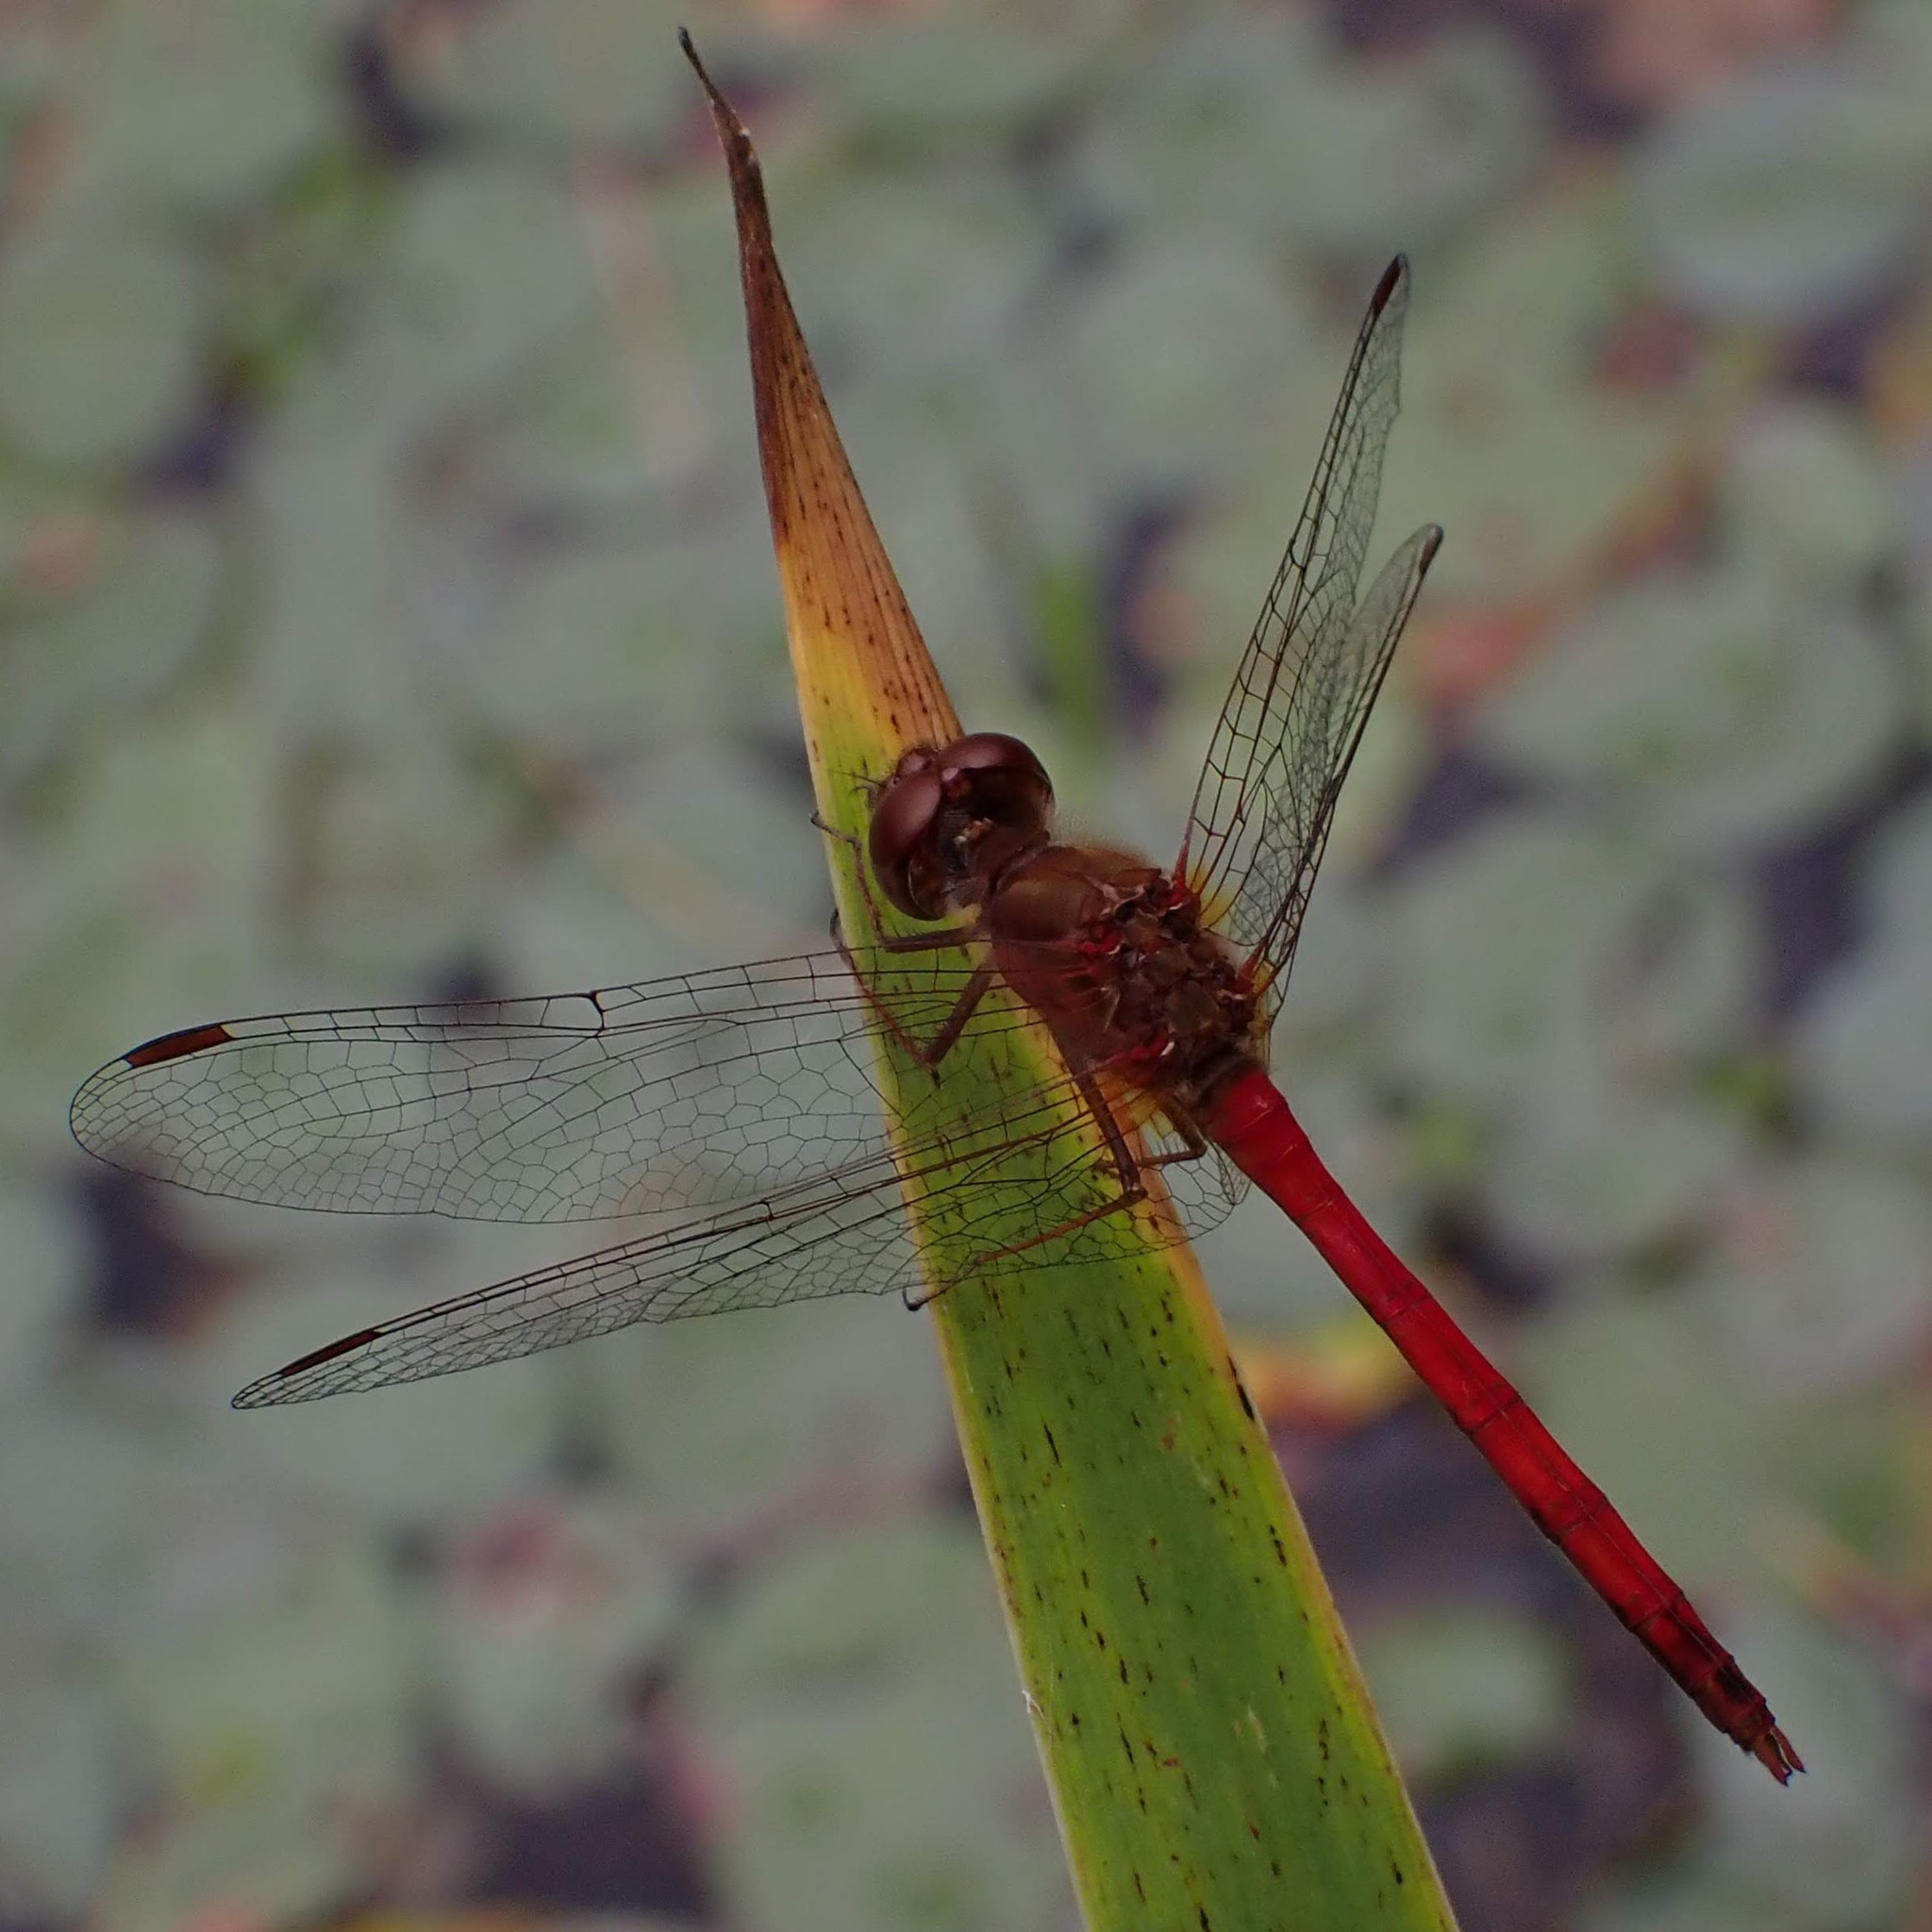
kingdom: Animalia
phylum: Arthropoda
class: Insecta
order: Odonata
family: Libellulidae
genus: Sympetrum
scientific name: Sympetrum vicinum
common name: Autumn meadowhawk
